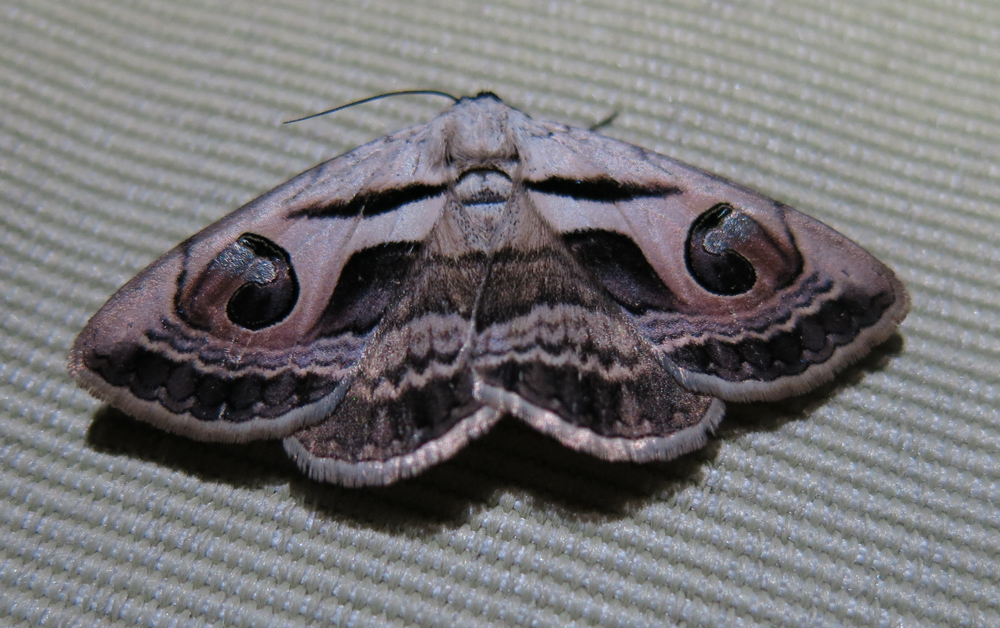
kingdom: Animalia
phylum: Arthropoda
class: Insecta
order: Lepidoptera
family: Erebidae
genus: Cometaster
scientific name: Cometaster pyrula
